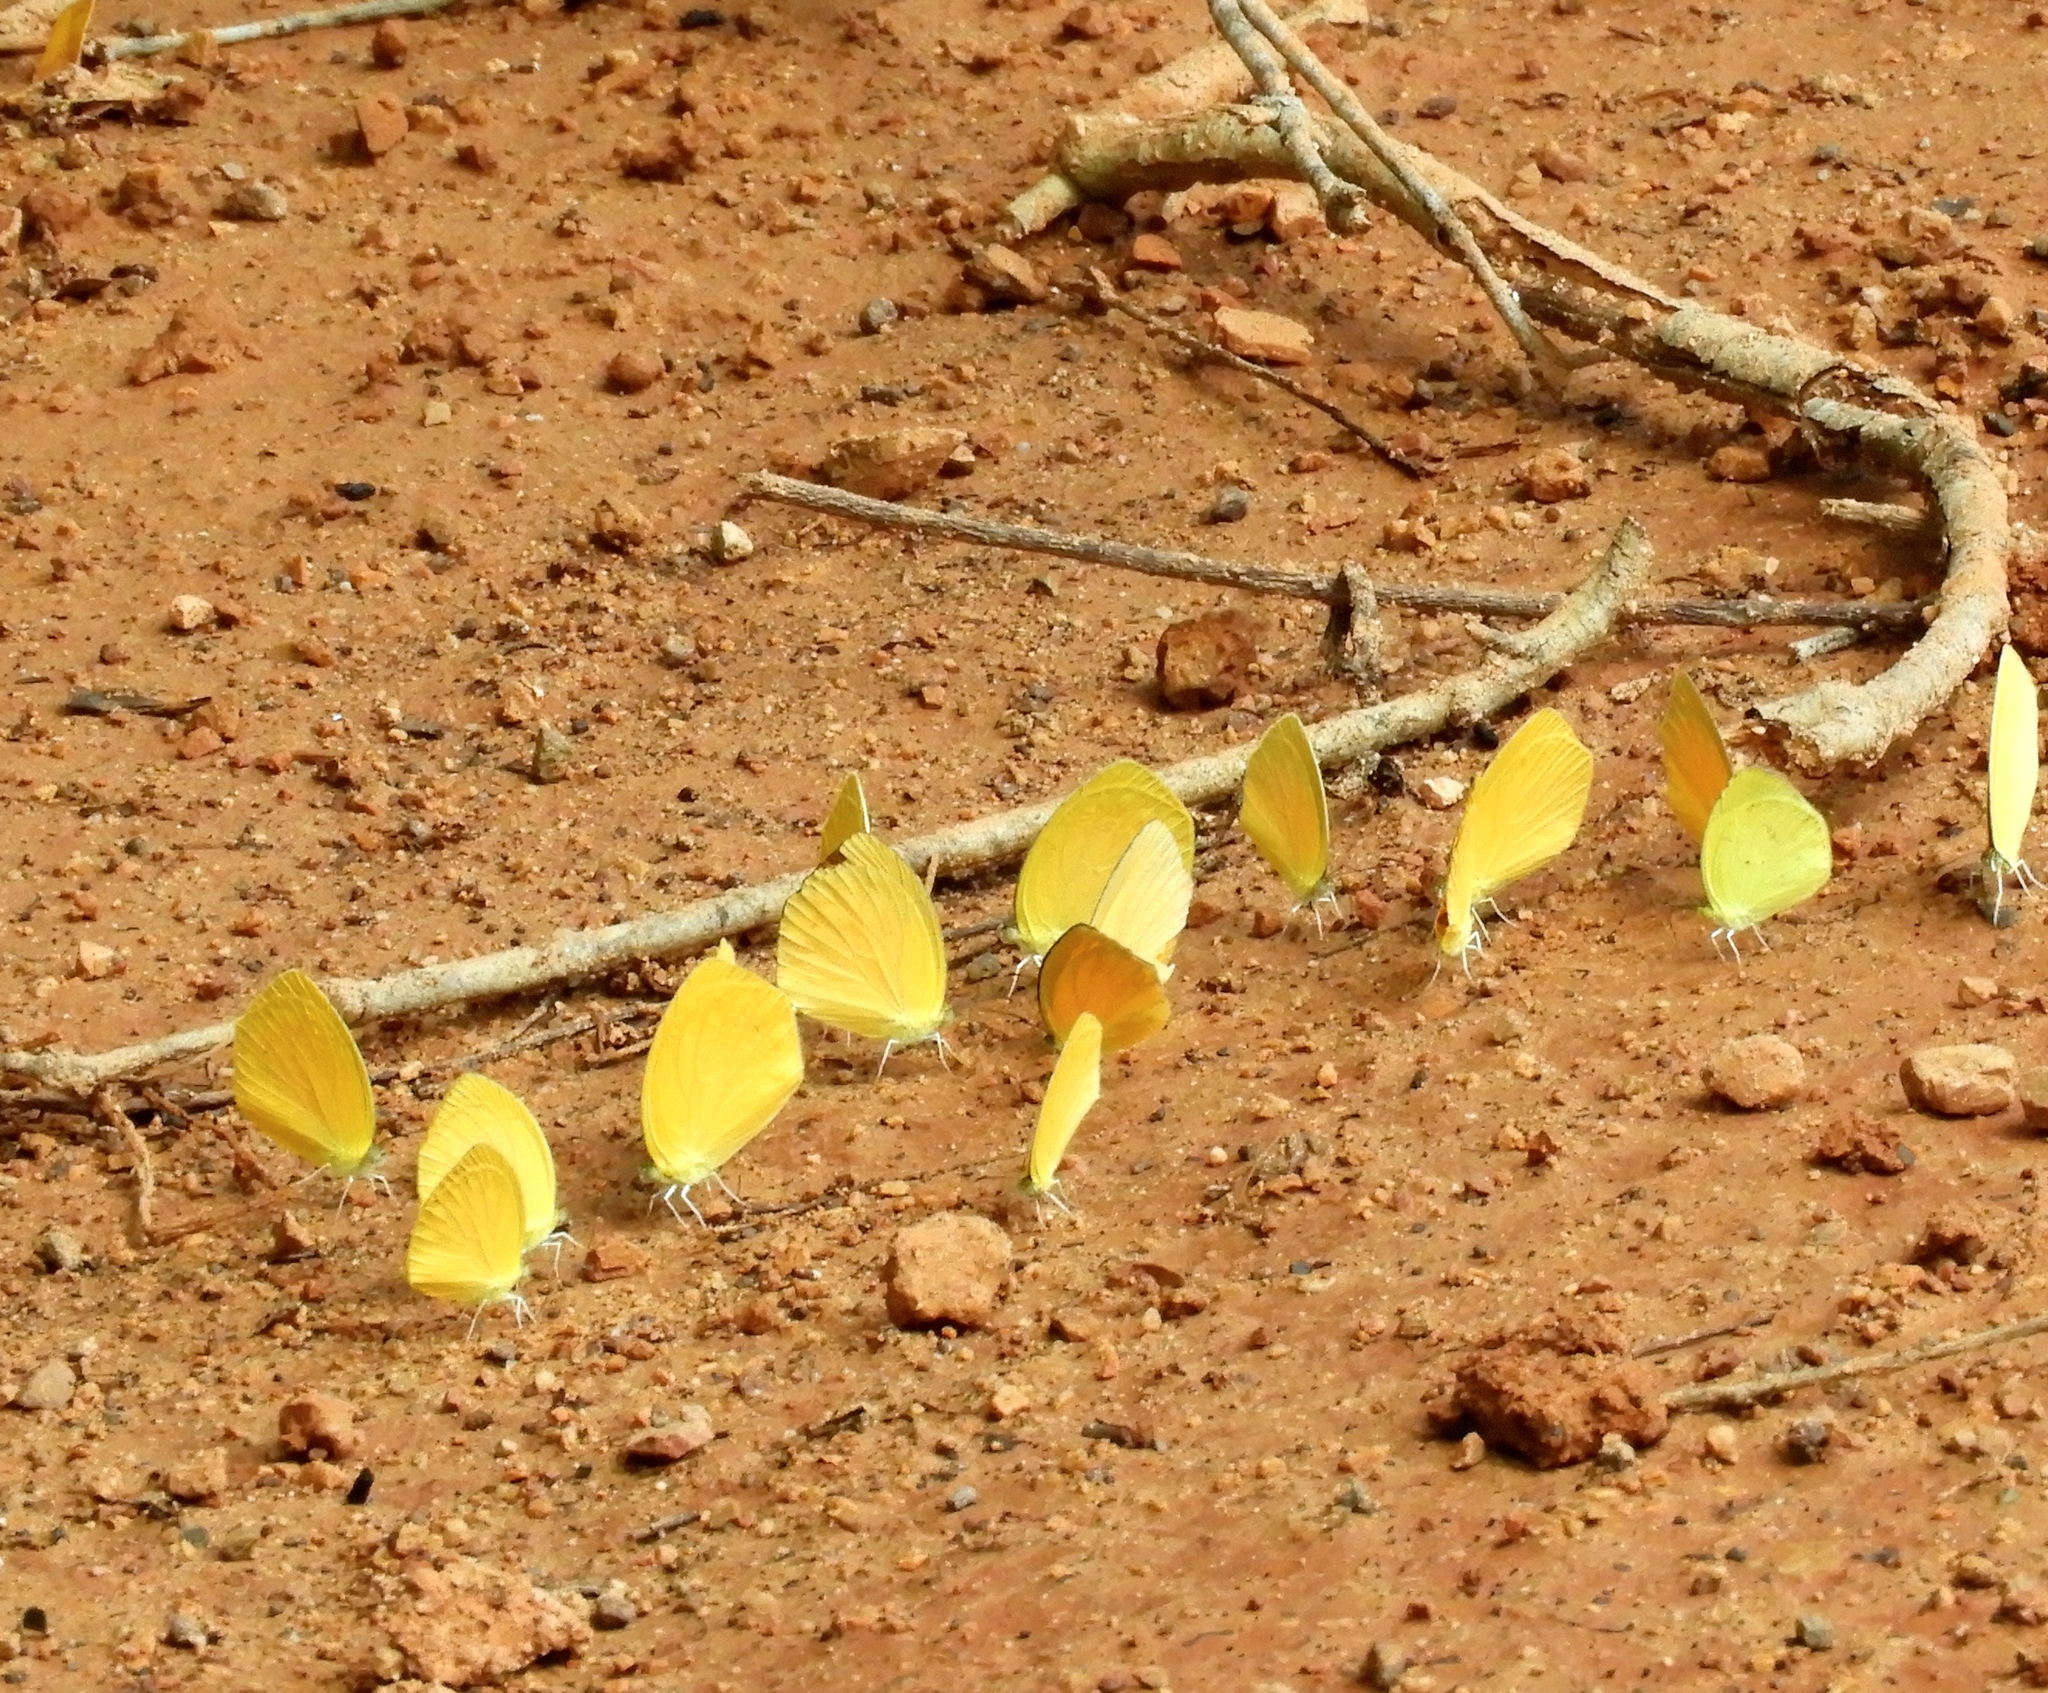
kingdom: Animalia
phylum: Arthropoda
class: Insecta
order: Lepidoptera
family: Pieridae
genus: Pyrisitia
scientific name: Pyrisitia proterpia
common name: Tailed orange
